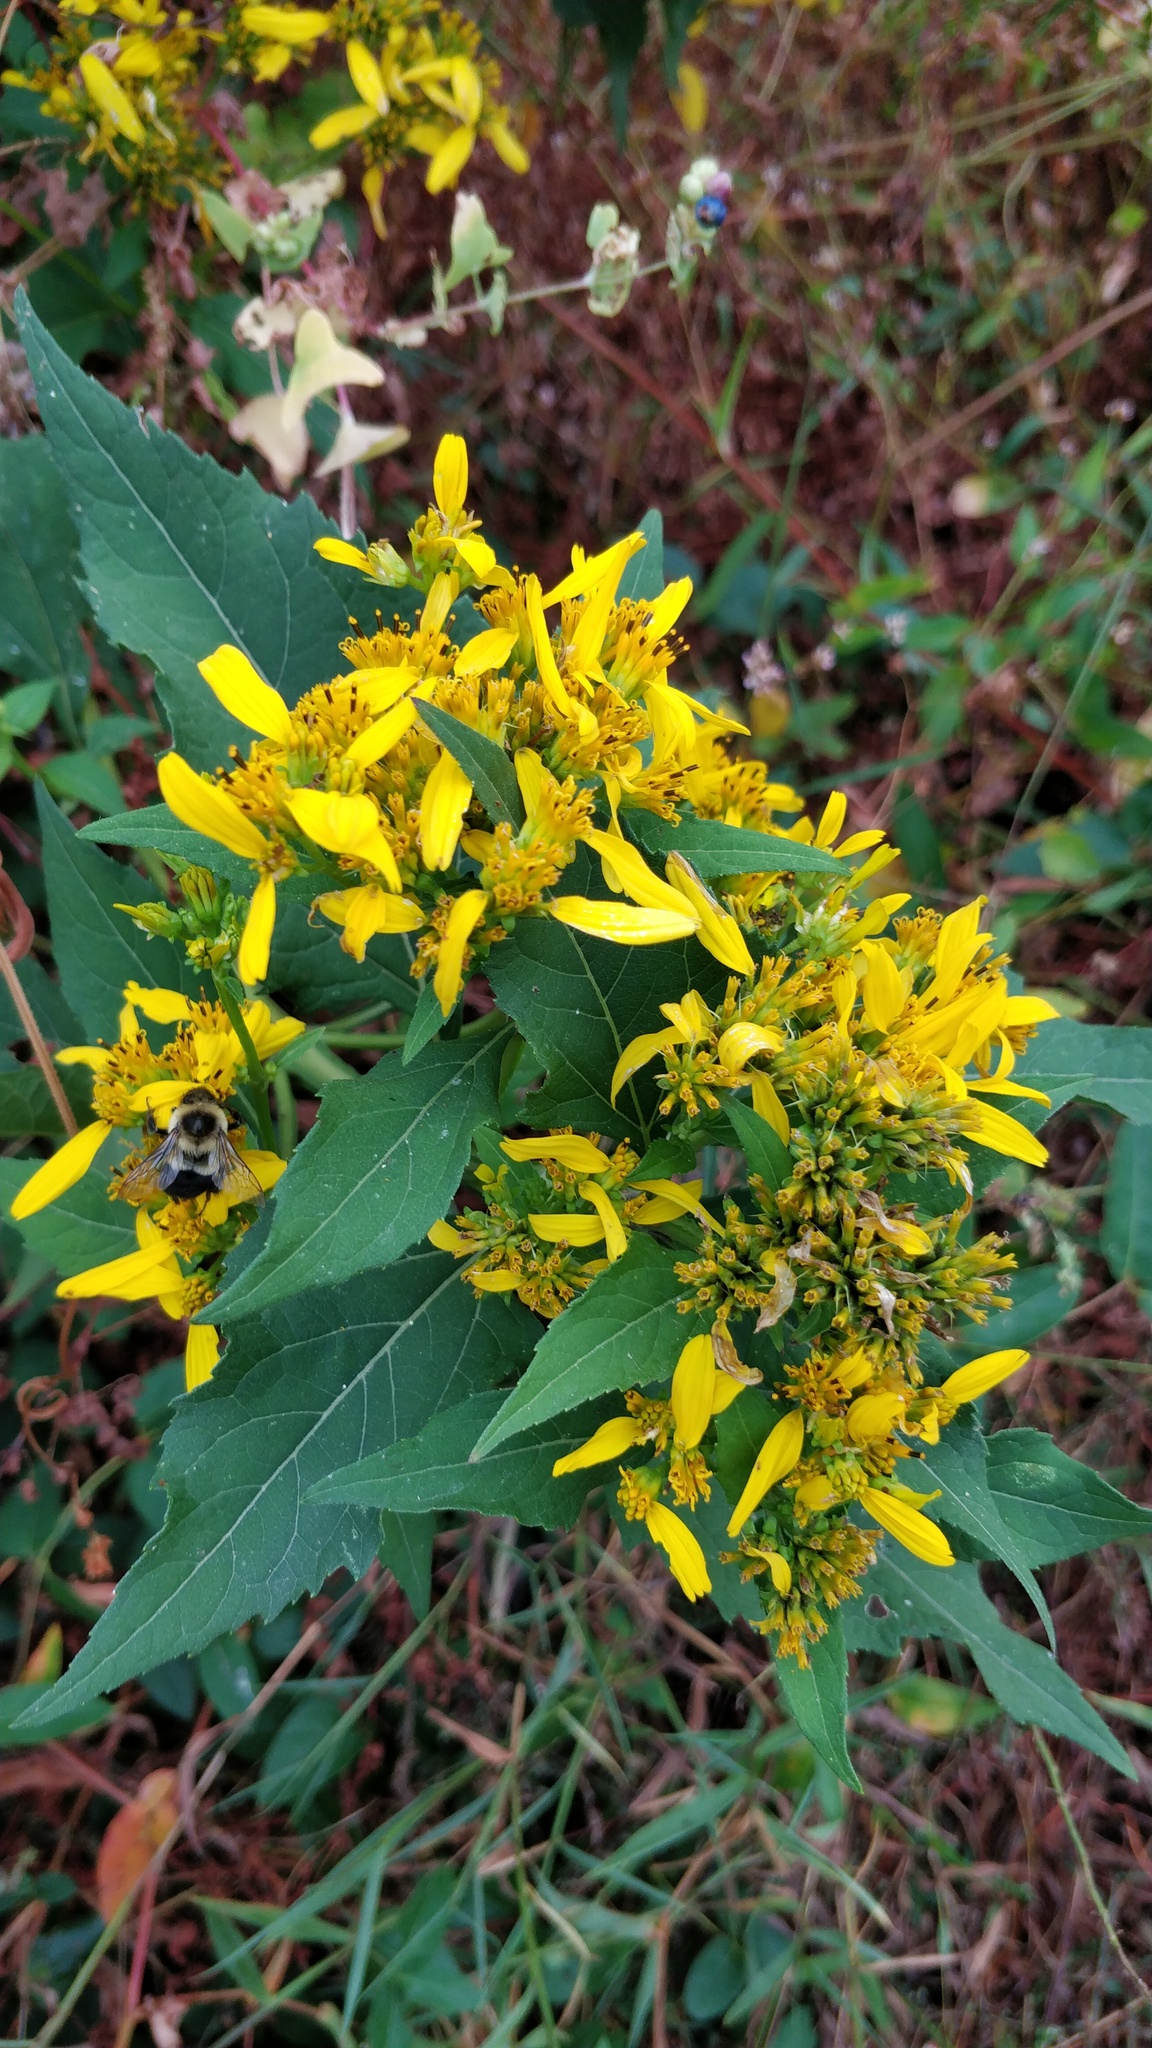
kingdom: Plantae
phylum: Tracheophyta
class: Magnoliopsida
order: Asterales
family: Asteraceae
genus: Verbesina
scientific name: Verbesina occidentalis
